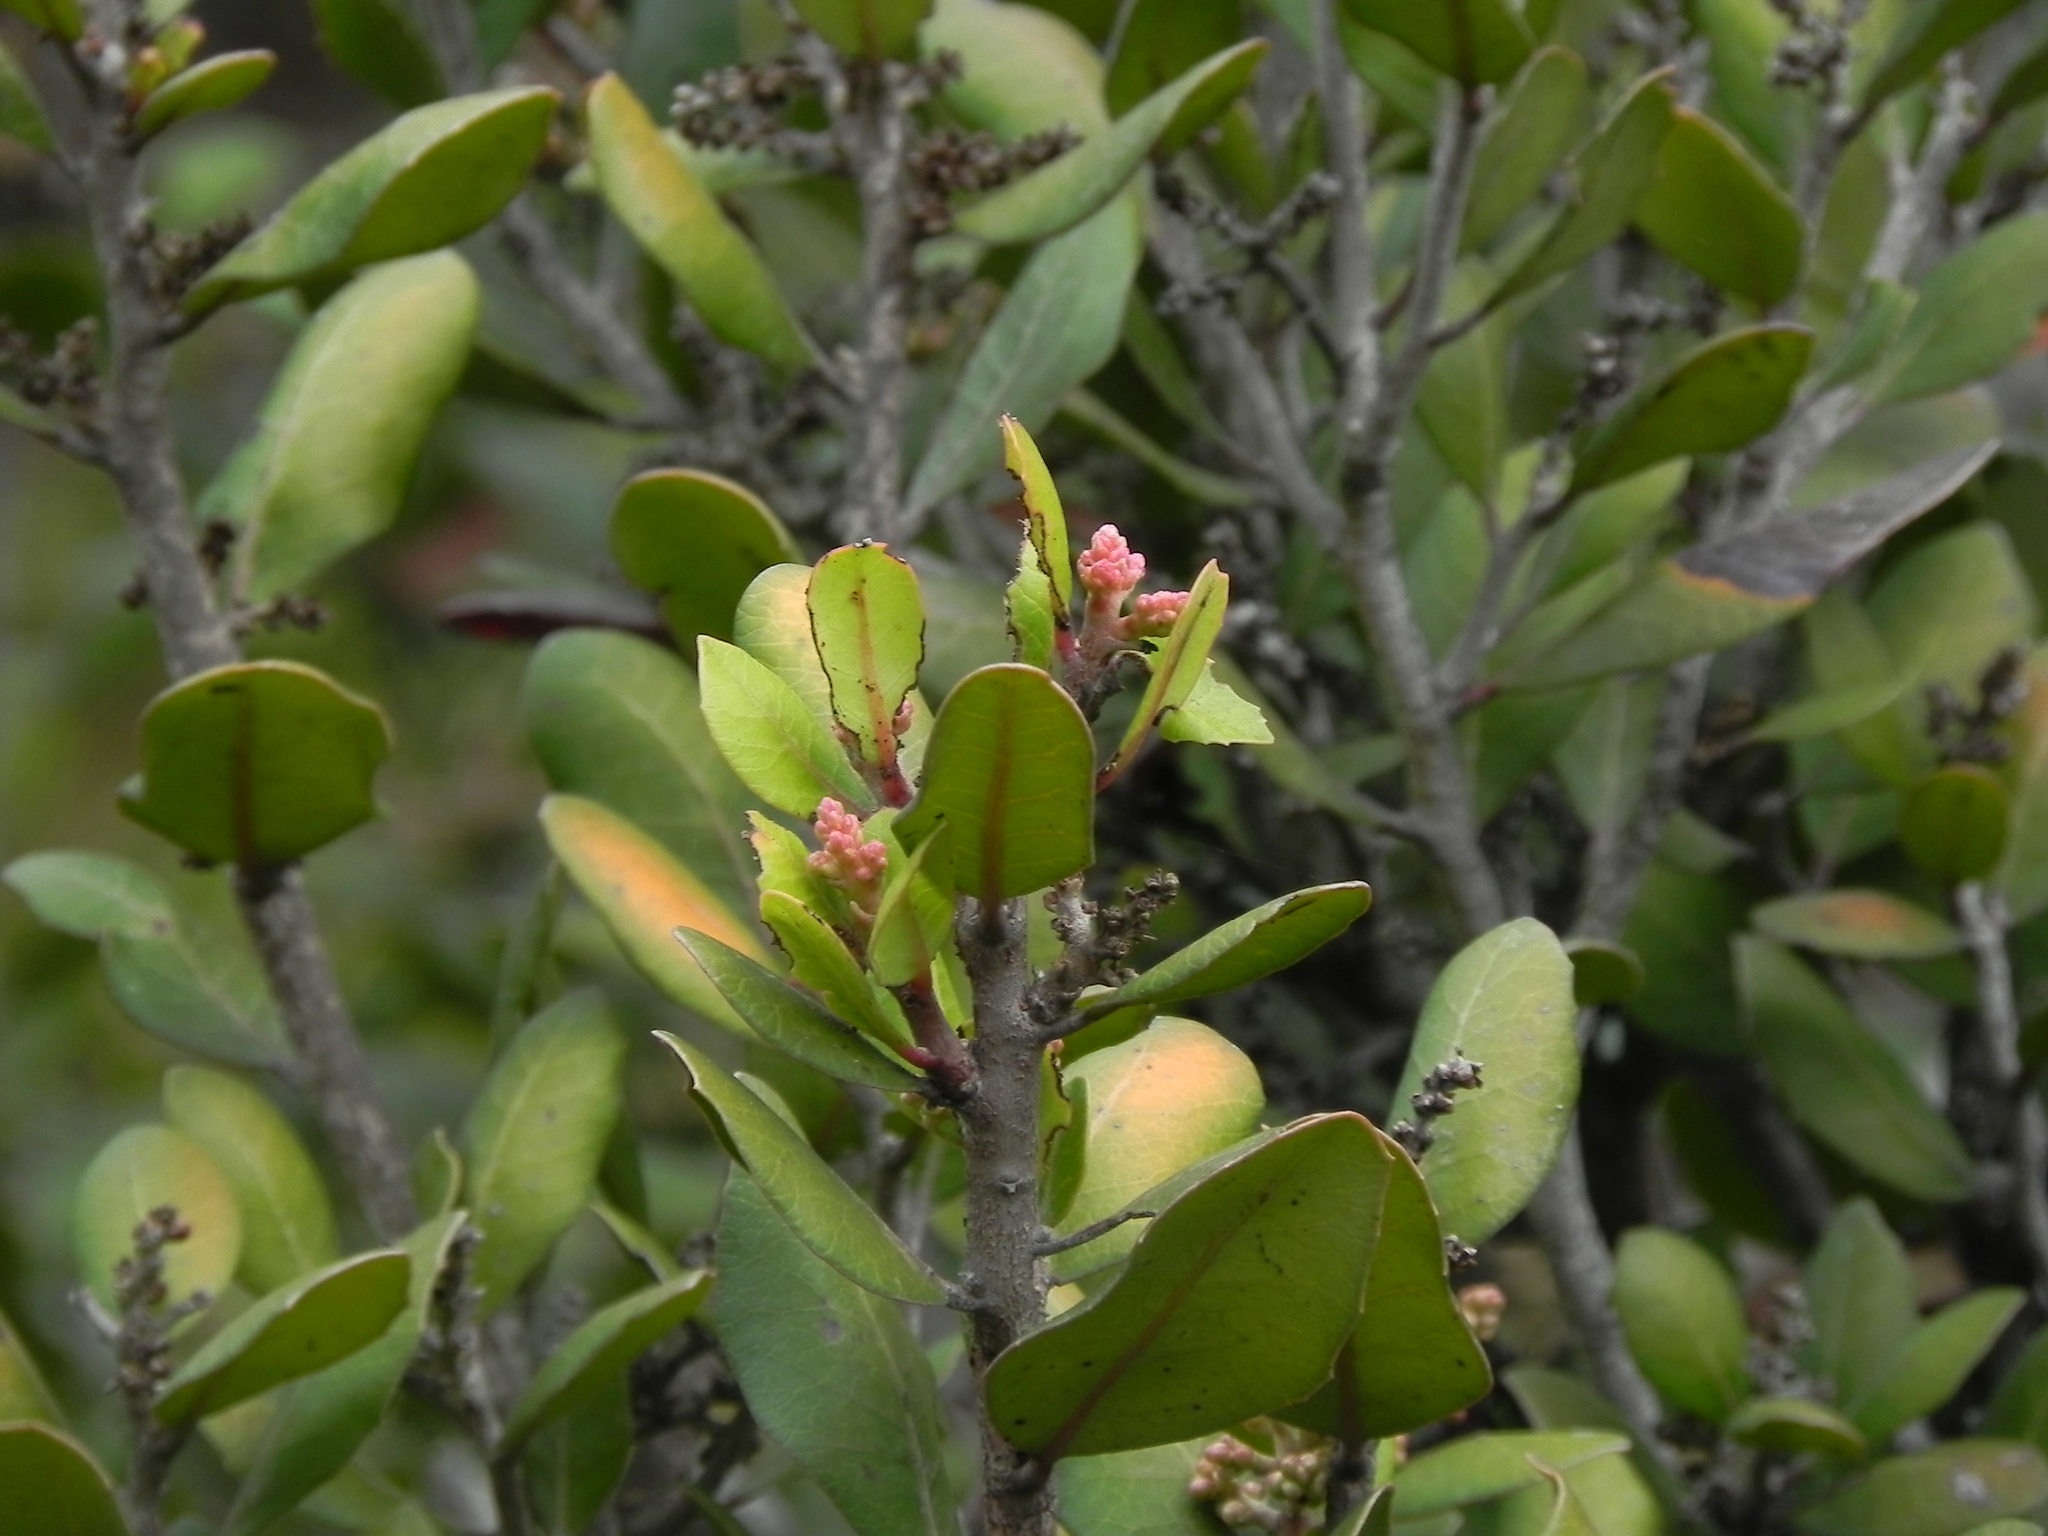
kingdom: Plantae
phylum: Tracheophyta
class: Magnoliopsida
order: Sapindales
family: Anacardiaceae
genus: Rhus
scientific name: Rhus integrifolia
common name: Lemonade sumac
